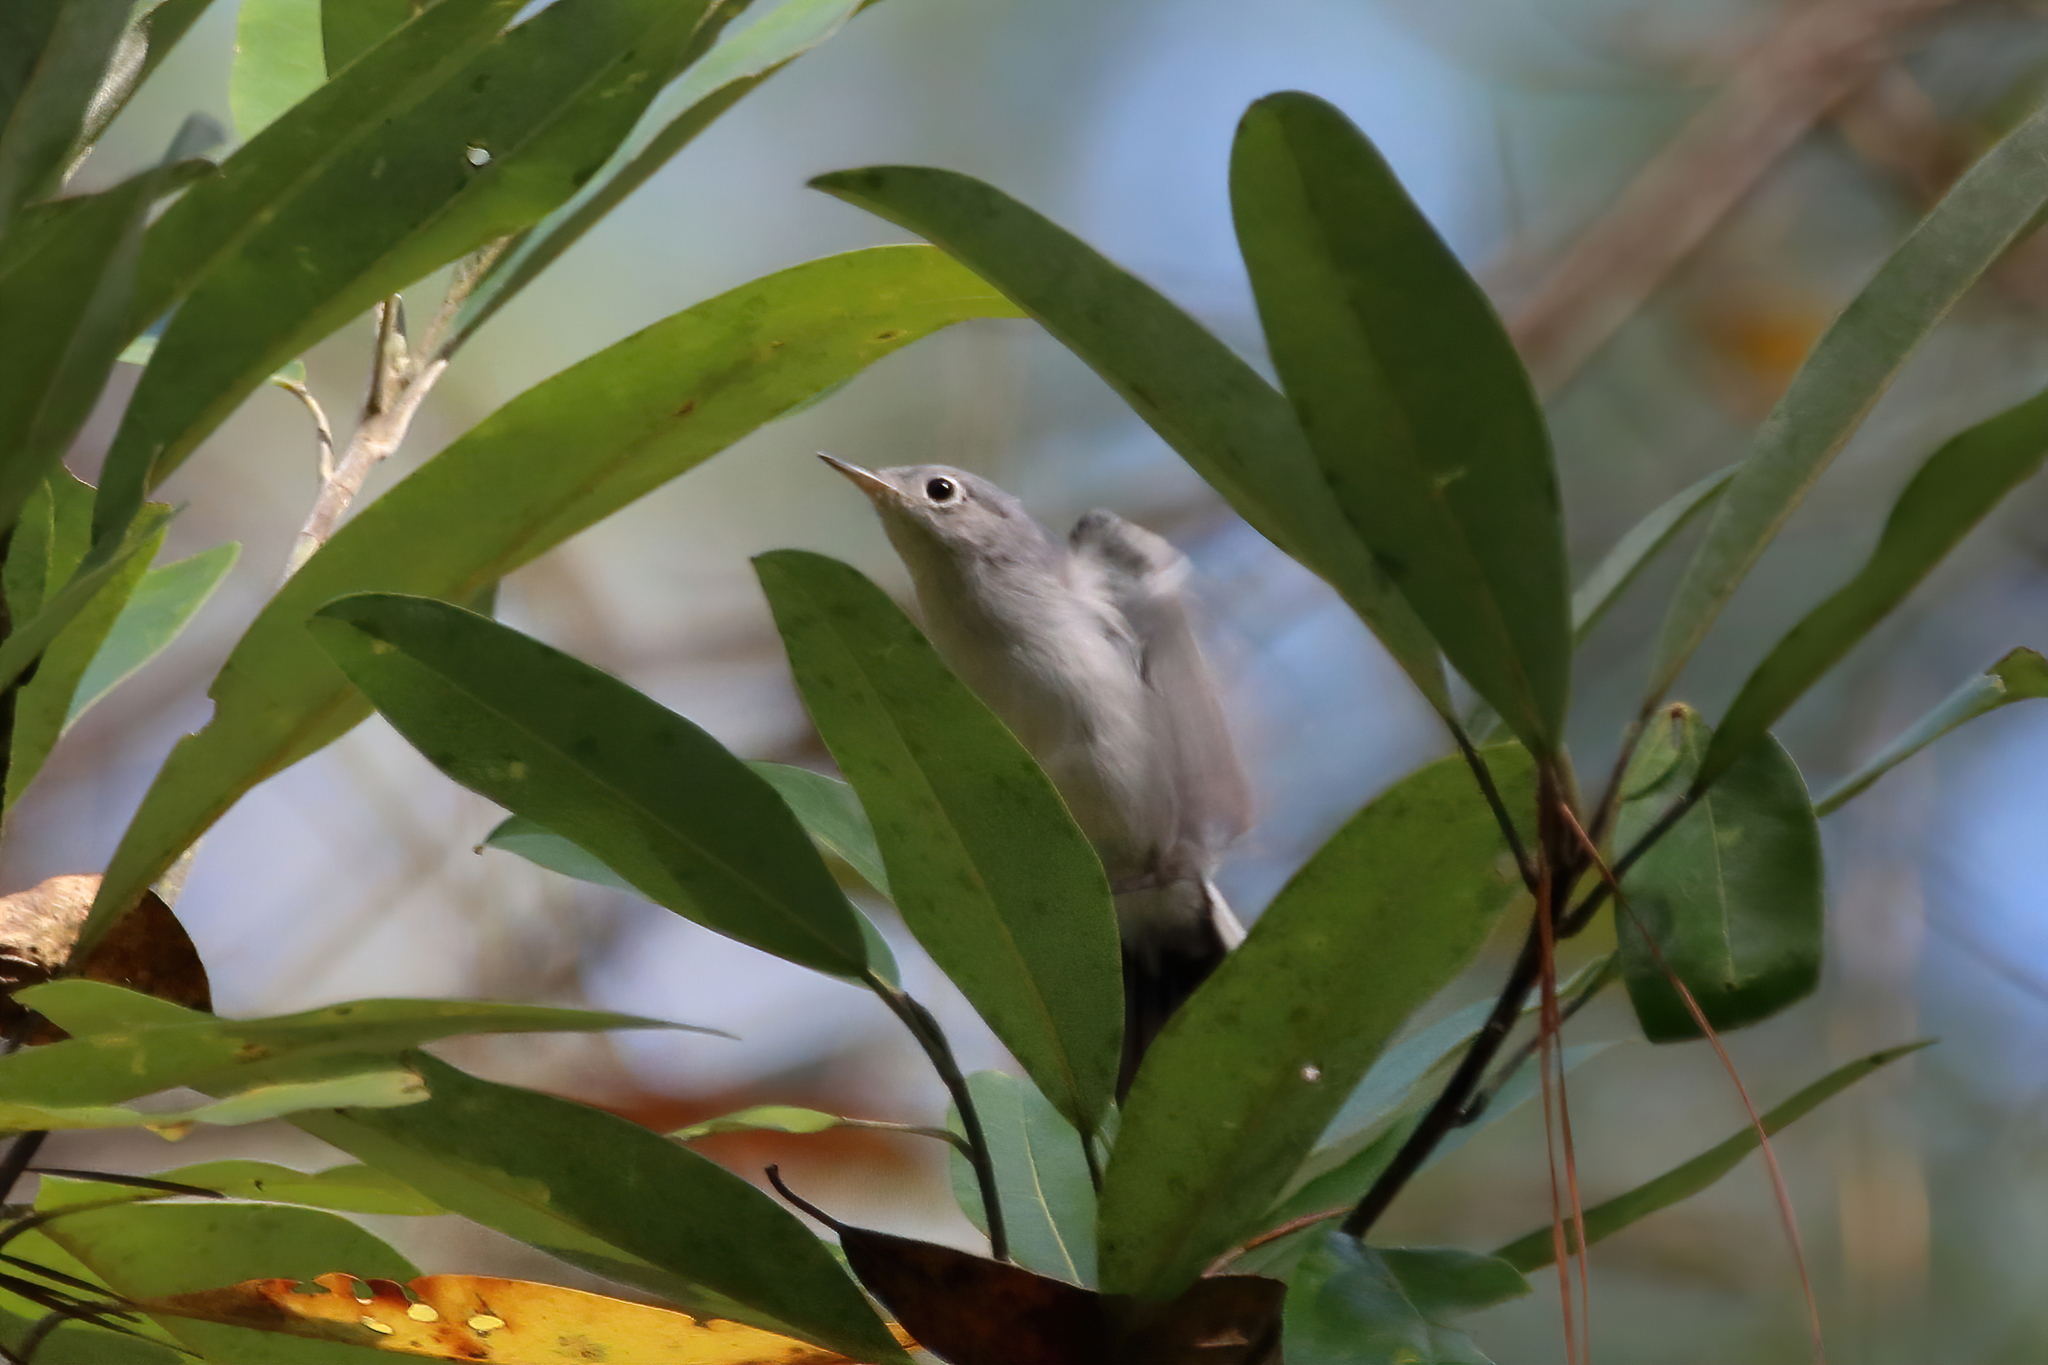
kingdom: Animalia
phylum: Chordata
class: Aves
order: Passeriformes
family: Polioptilidae
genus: Polioptila
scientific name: Polioptila caerulea
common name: Blue-gray gnatcatcher
